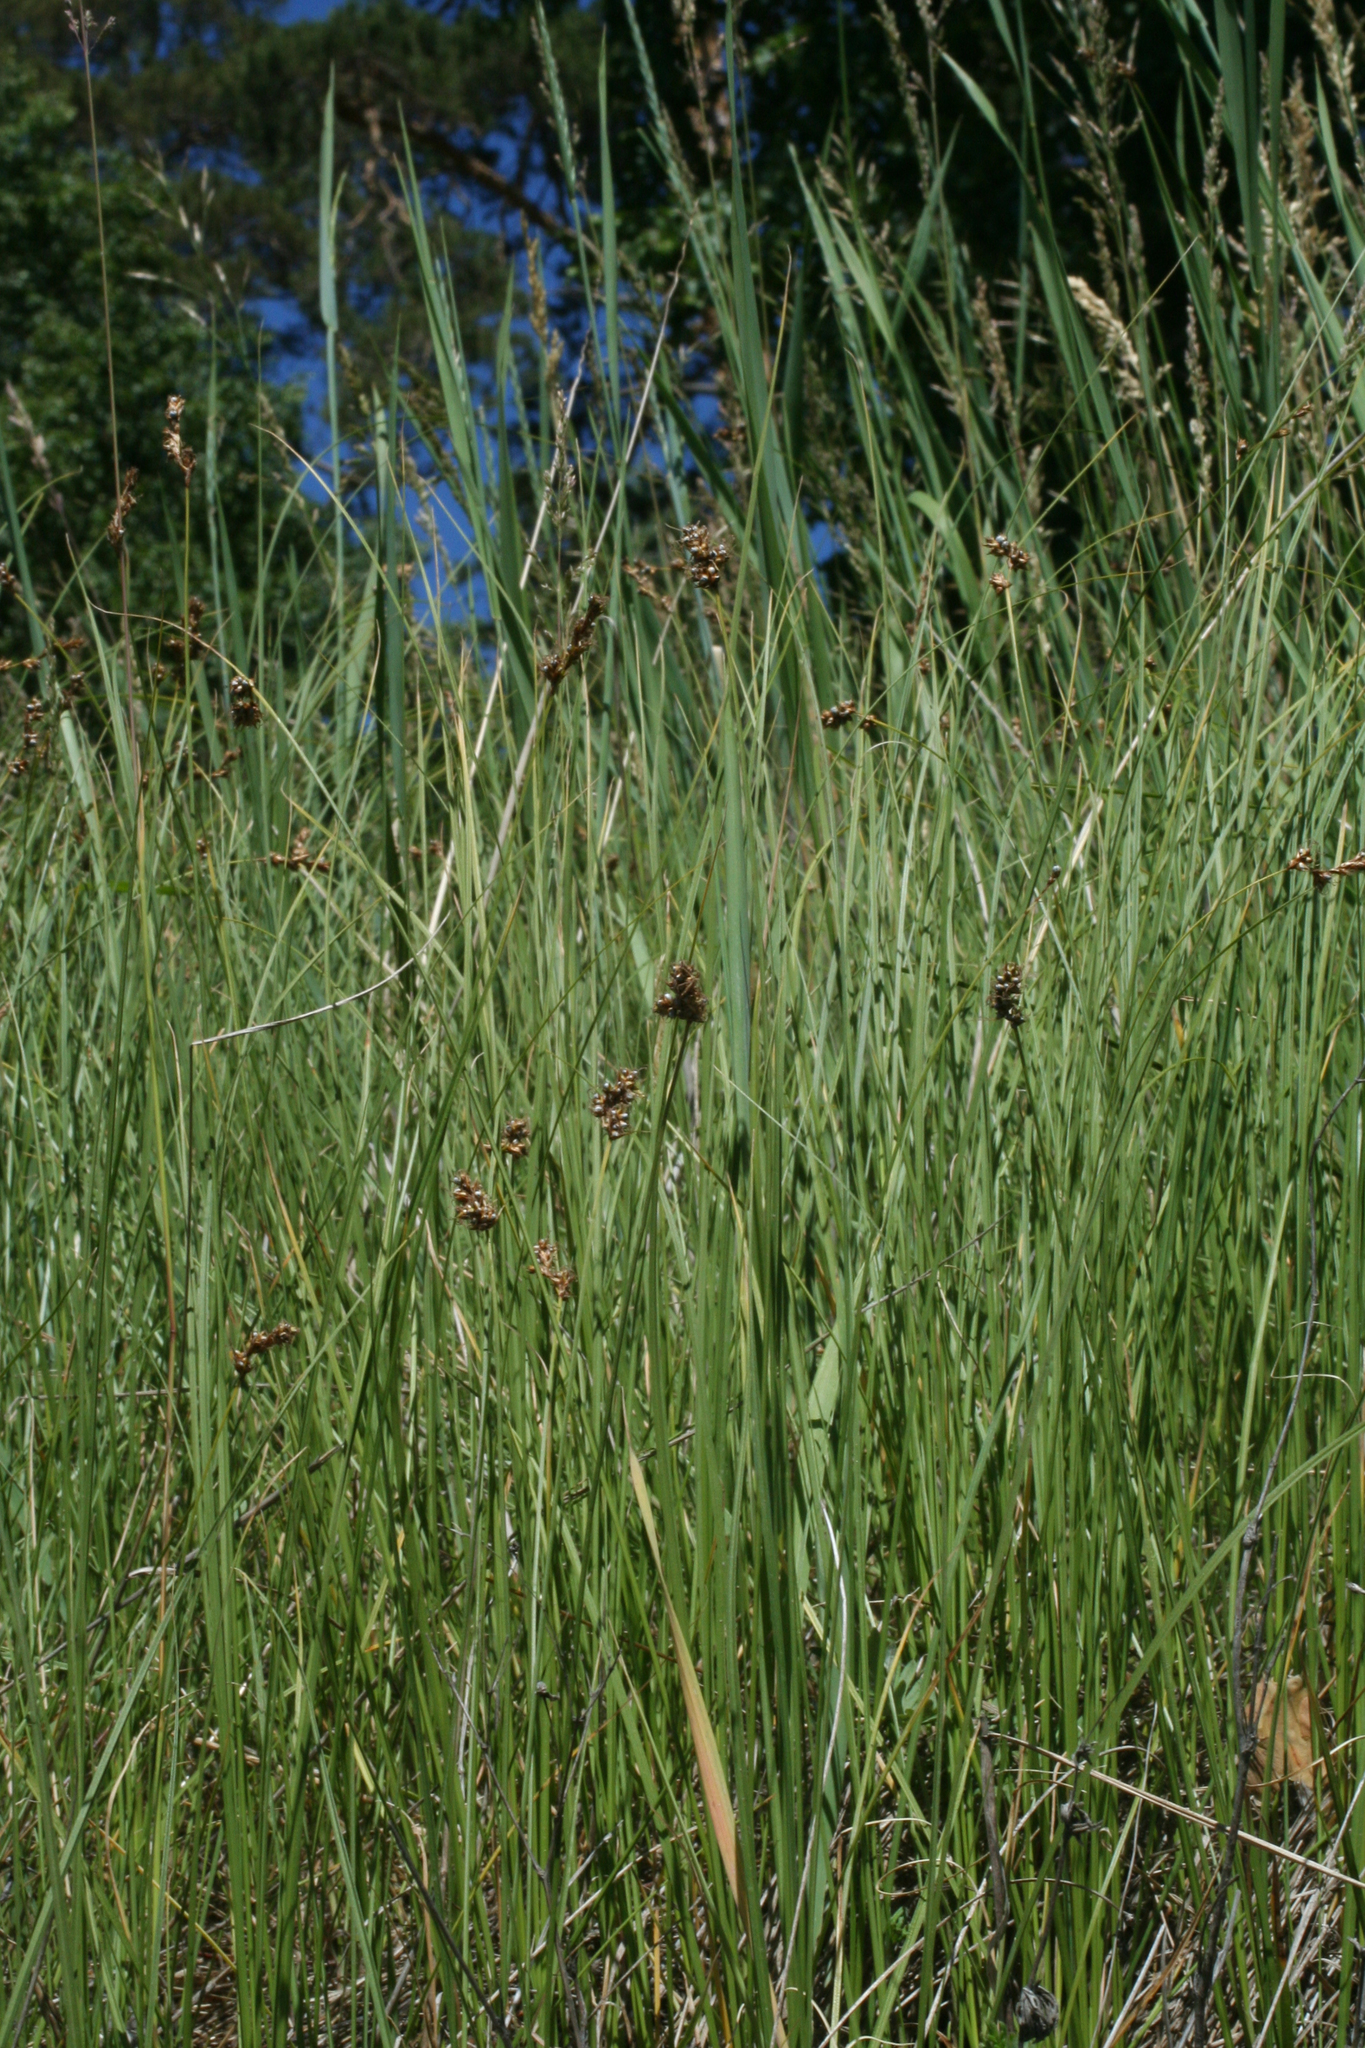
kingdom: Plantae
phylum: Tracheophyta
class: Liliopsida
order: Poales
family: Cyperaceae
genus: Carex
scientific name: Carex praecox
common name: Early sedge
